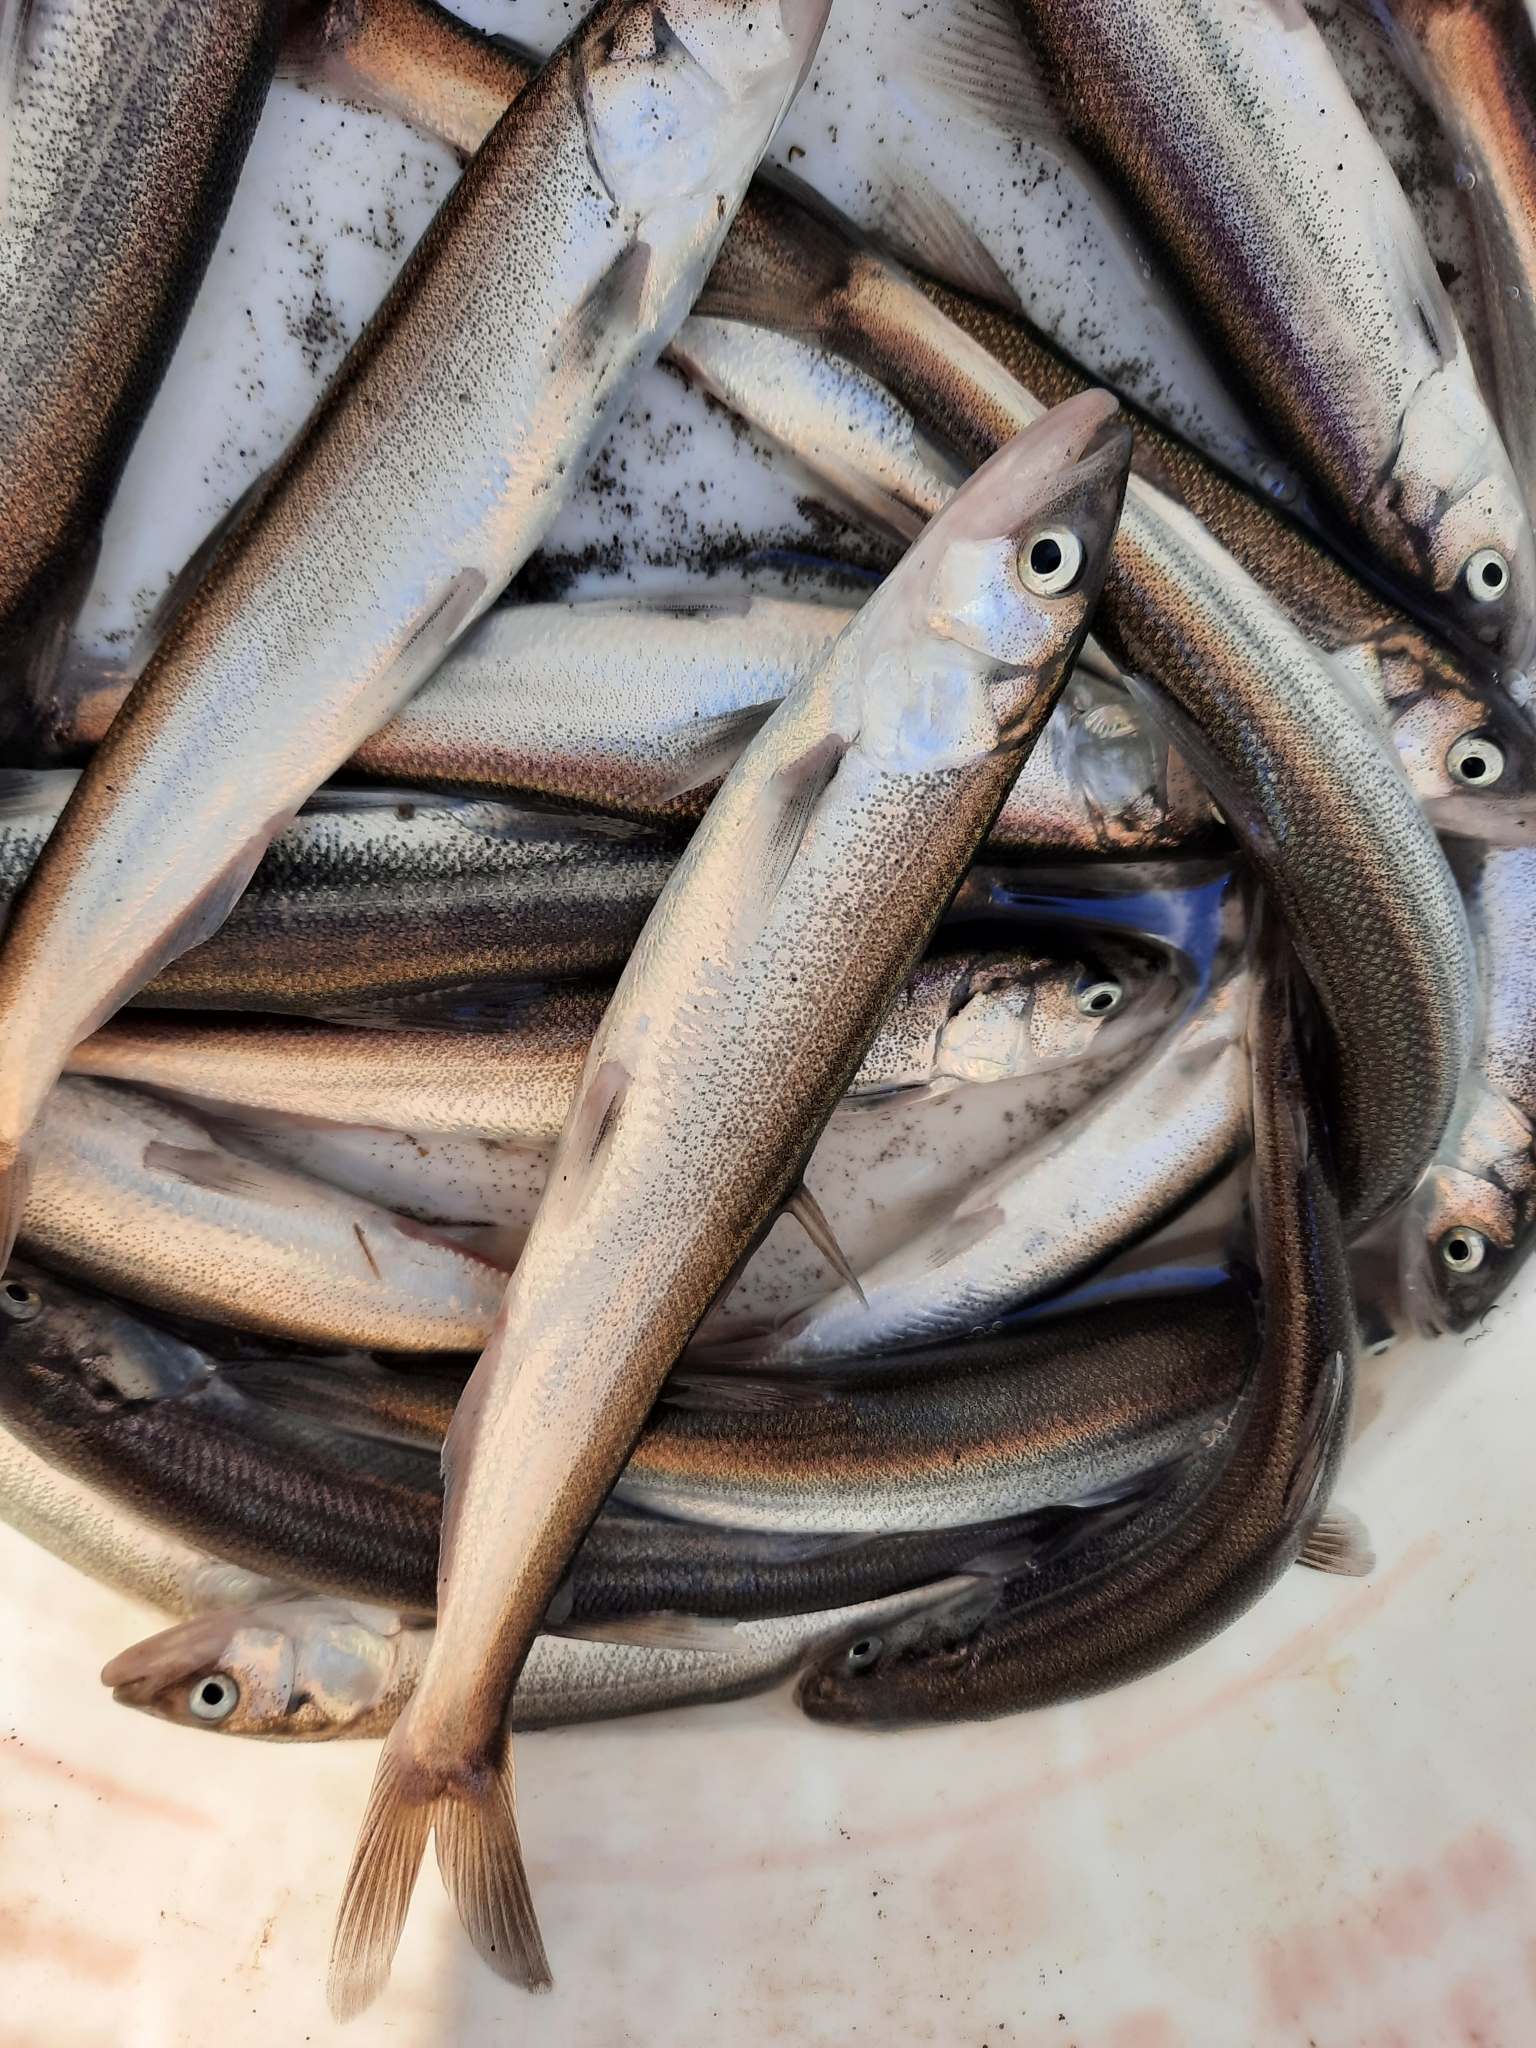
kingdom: Animalia
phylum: Chordata
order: Osmeriformes
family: Osmeridae
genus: Thaleichthys
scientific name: Thaleichthys pacificus
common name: Eulachon
